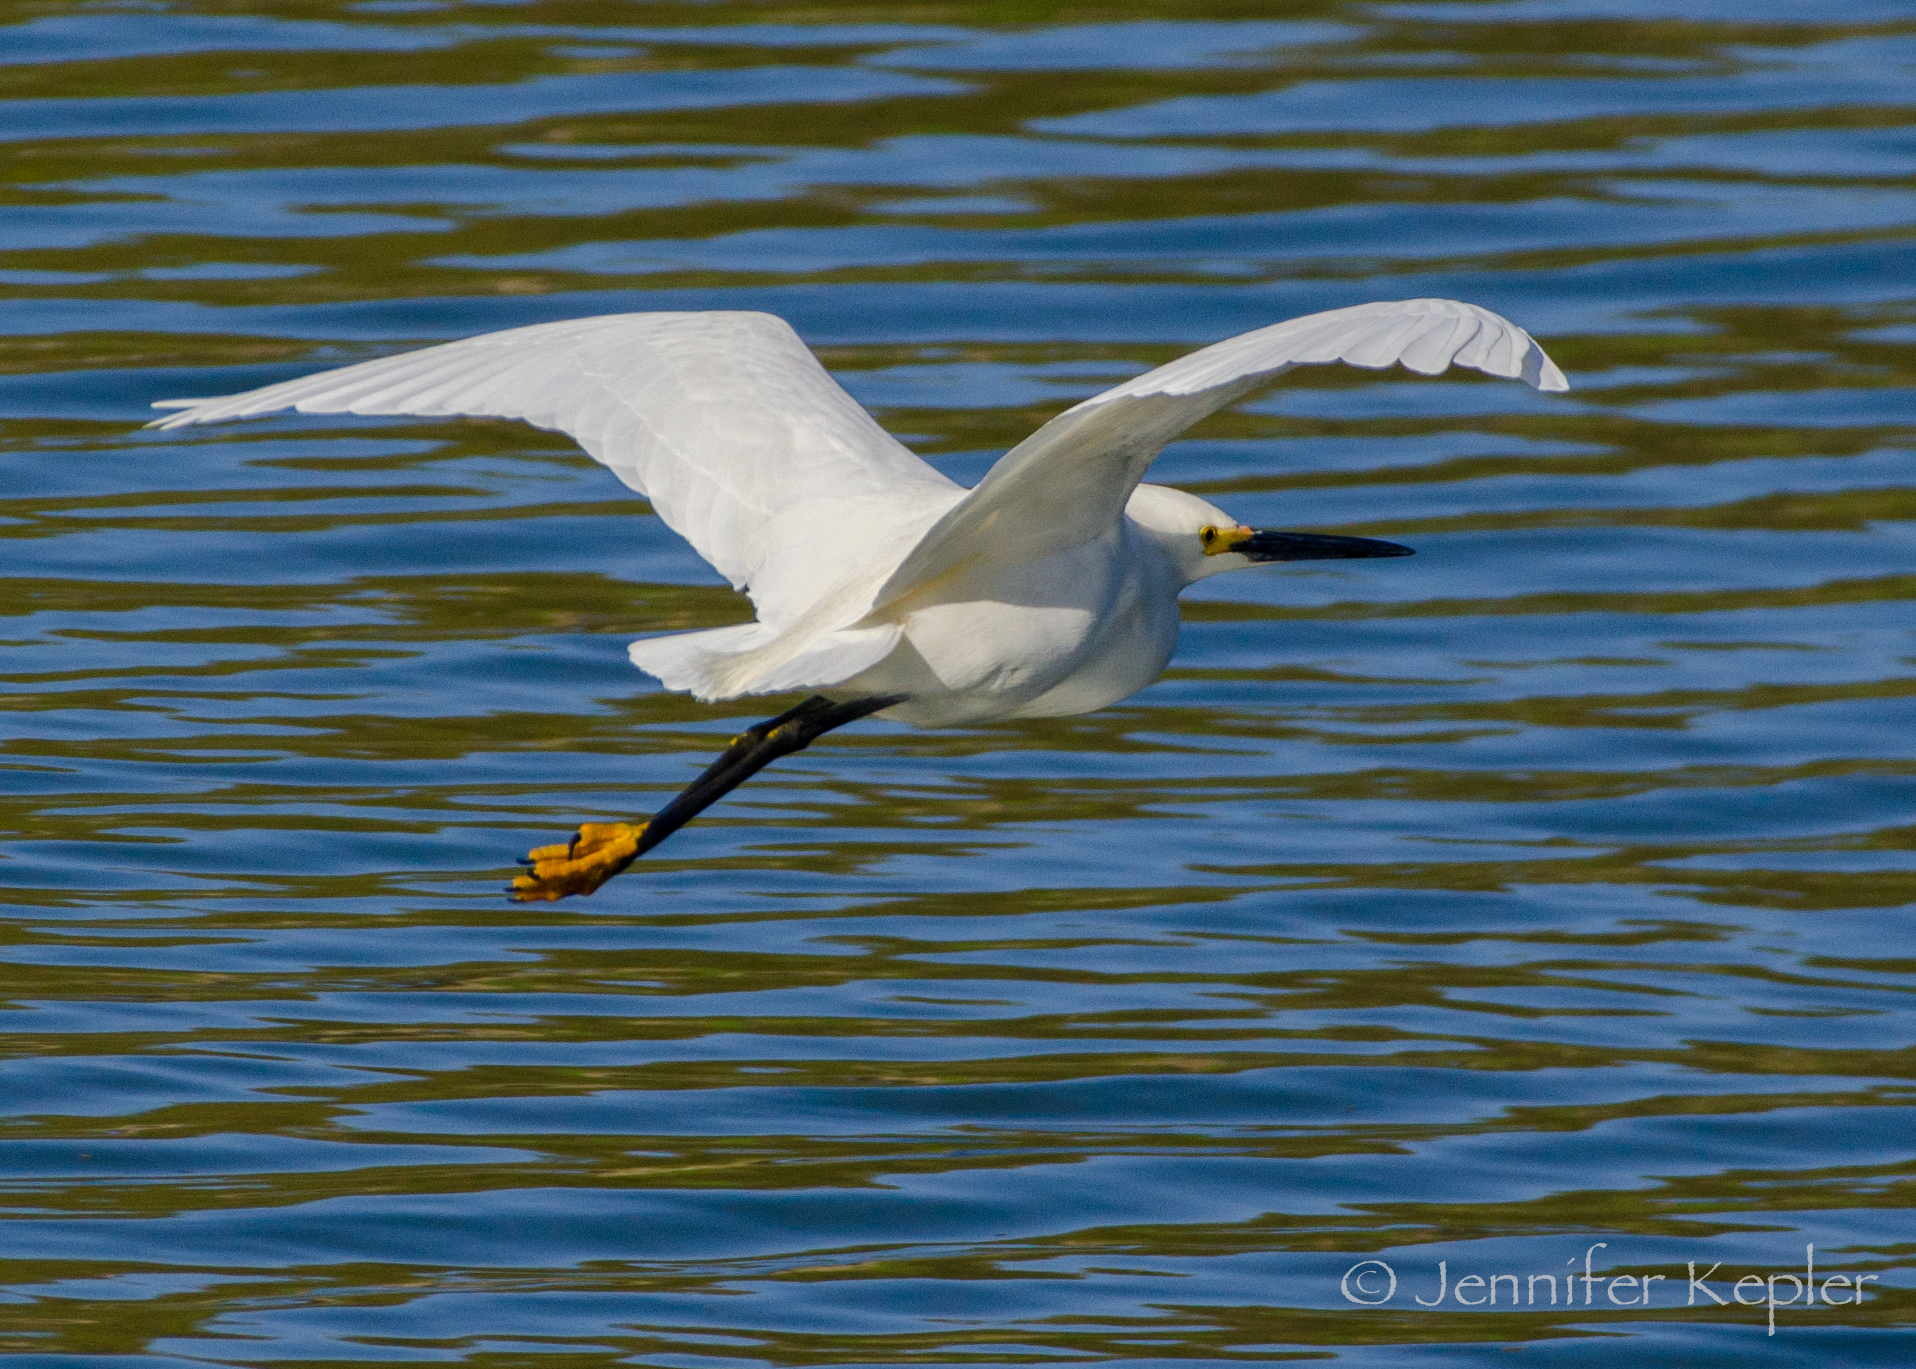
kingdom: Animalia
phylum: Chordata
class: Aves
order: Pelecaniformes
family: Ardeidae
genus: Egretta
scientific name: Egretta thula
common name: Snowy egret
